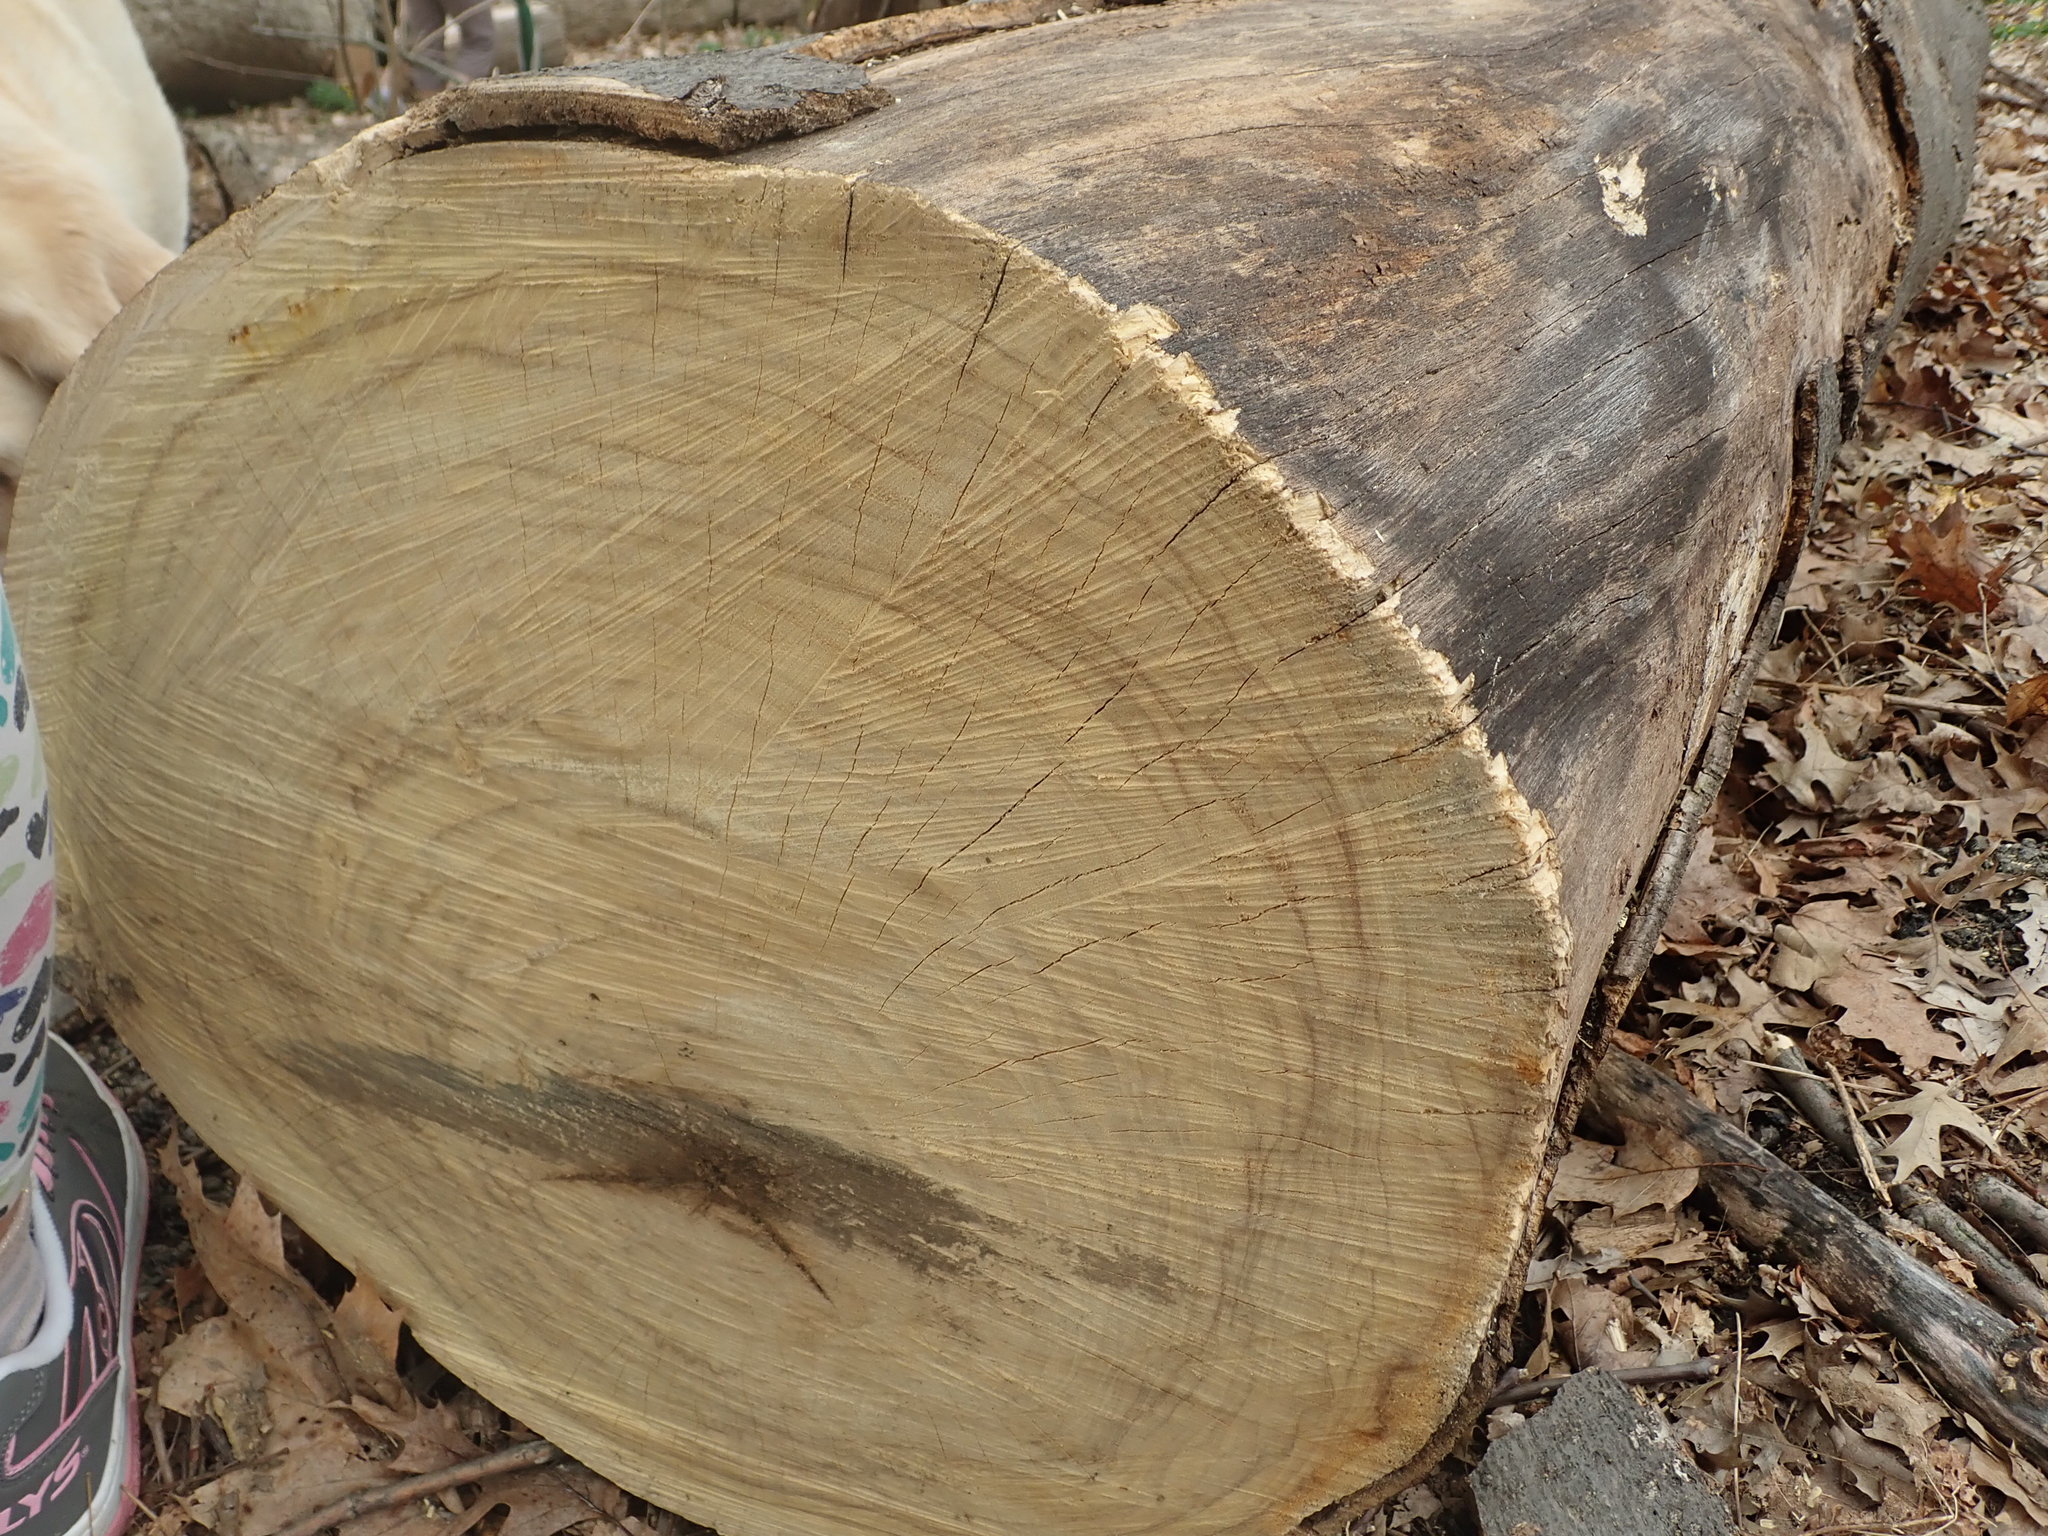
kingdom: Plantae
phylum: Tracheophyta
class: Magnoliopsida
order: Fabales
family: Fabaceae
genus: Cladrastis
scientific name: Cladrastis kentukea
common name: Kentucky yellow-wood
